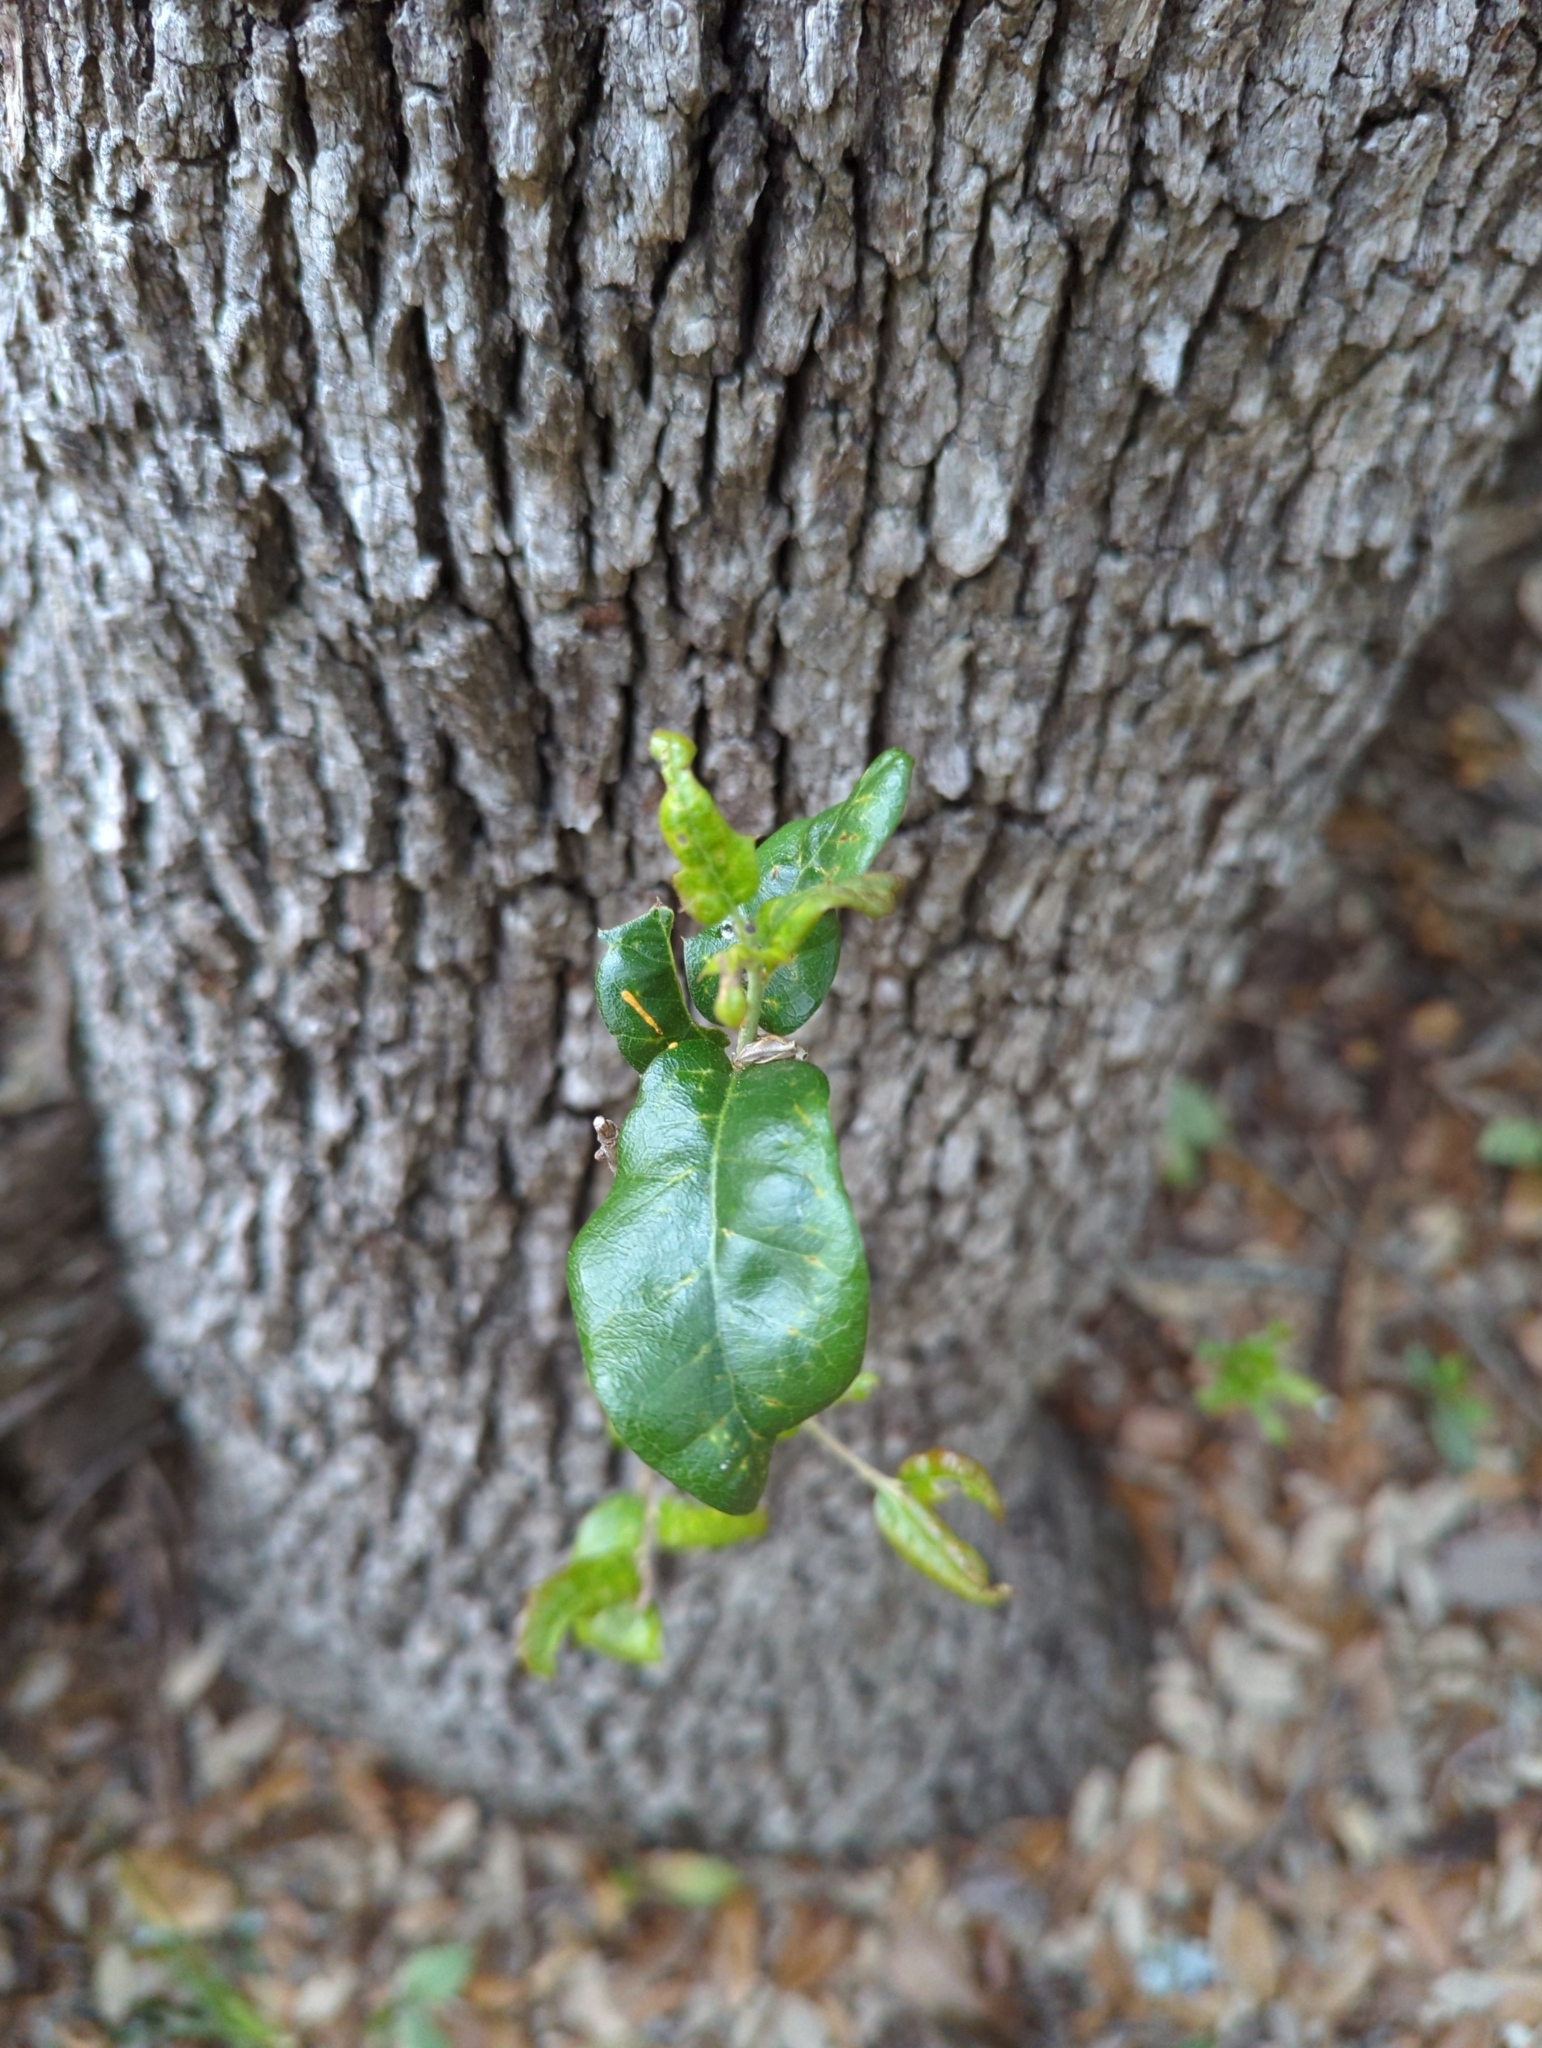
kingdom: Plantae
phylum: Tracheophyta
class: Magnoliopsida
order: Fagales
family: Fagaceae
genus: Quercus
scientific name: Quercus fusiformis
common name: Texas live oak
